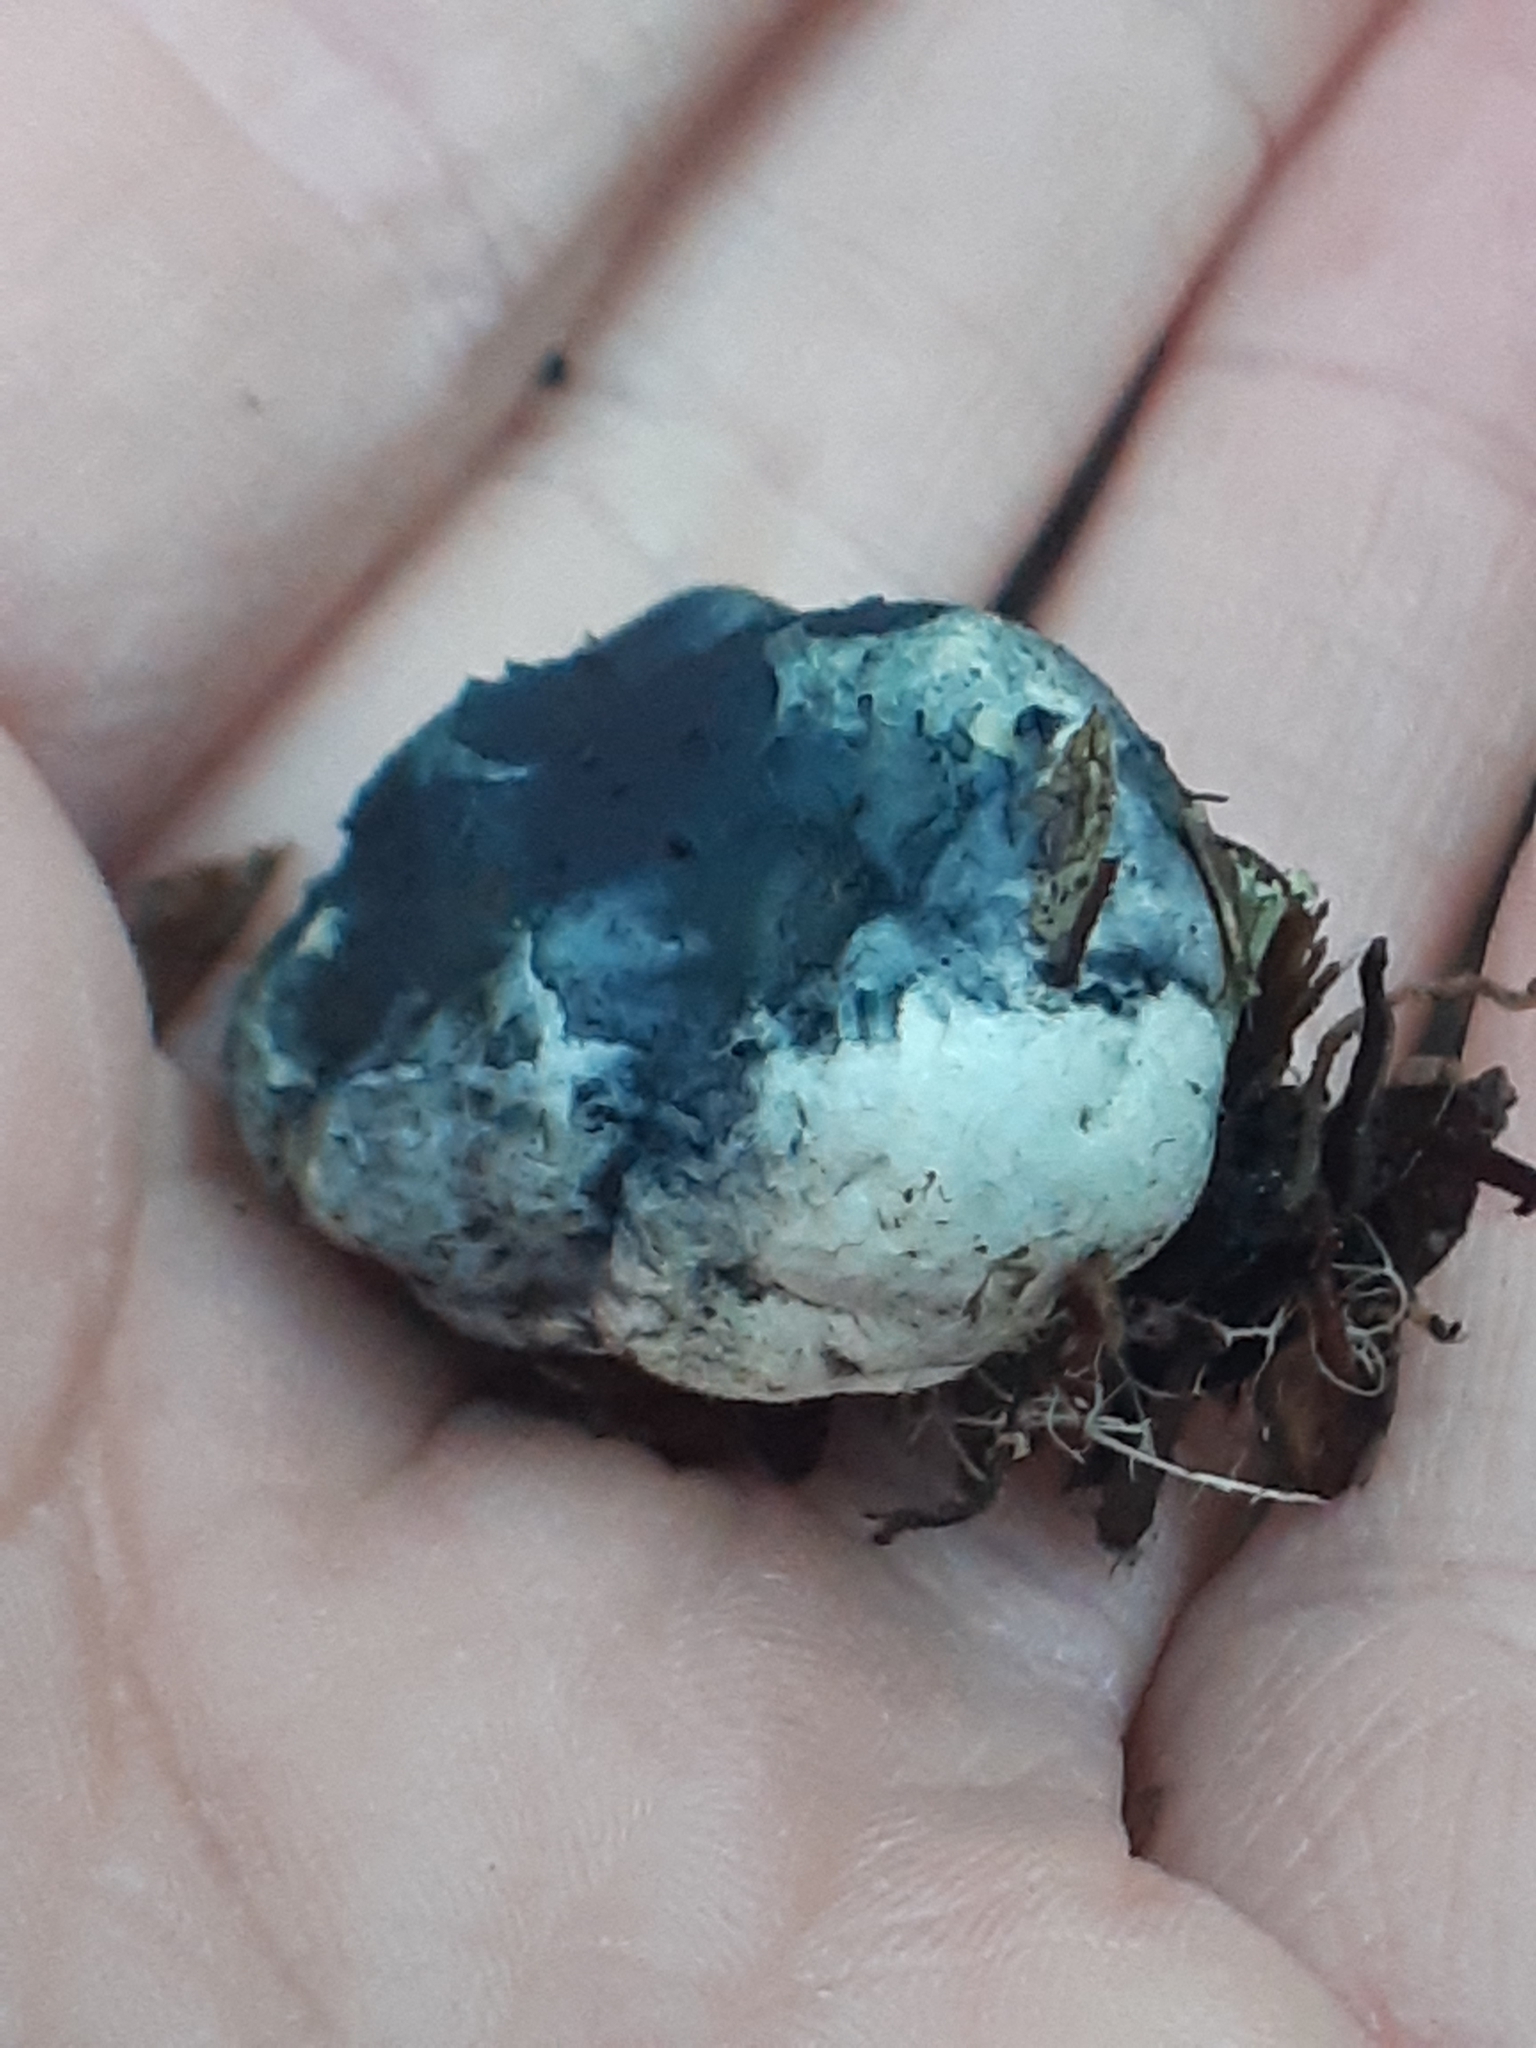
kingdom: Fungi
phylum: Basidiomycota
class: Agaricomycetes
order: Boletales
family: Boletaceae
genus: Leccinum
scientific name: Leccinum pachyderme
